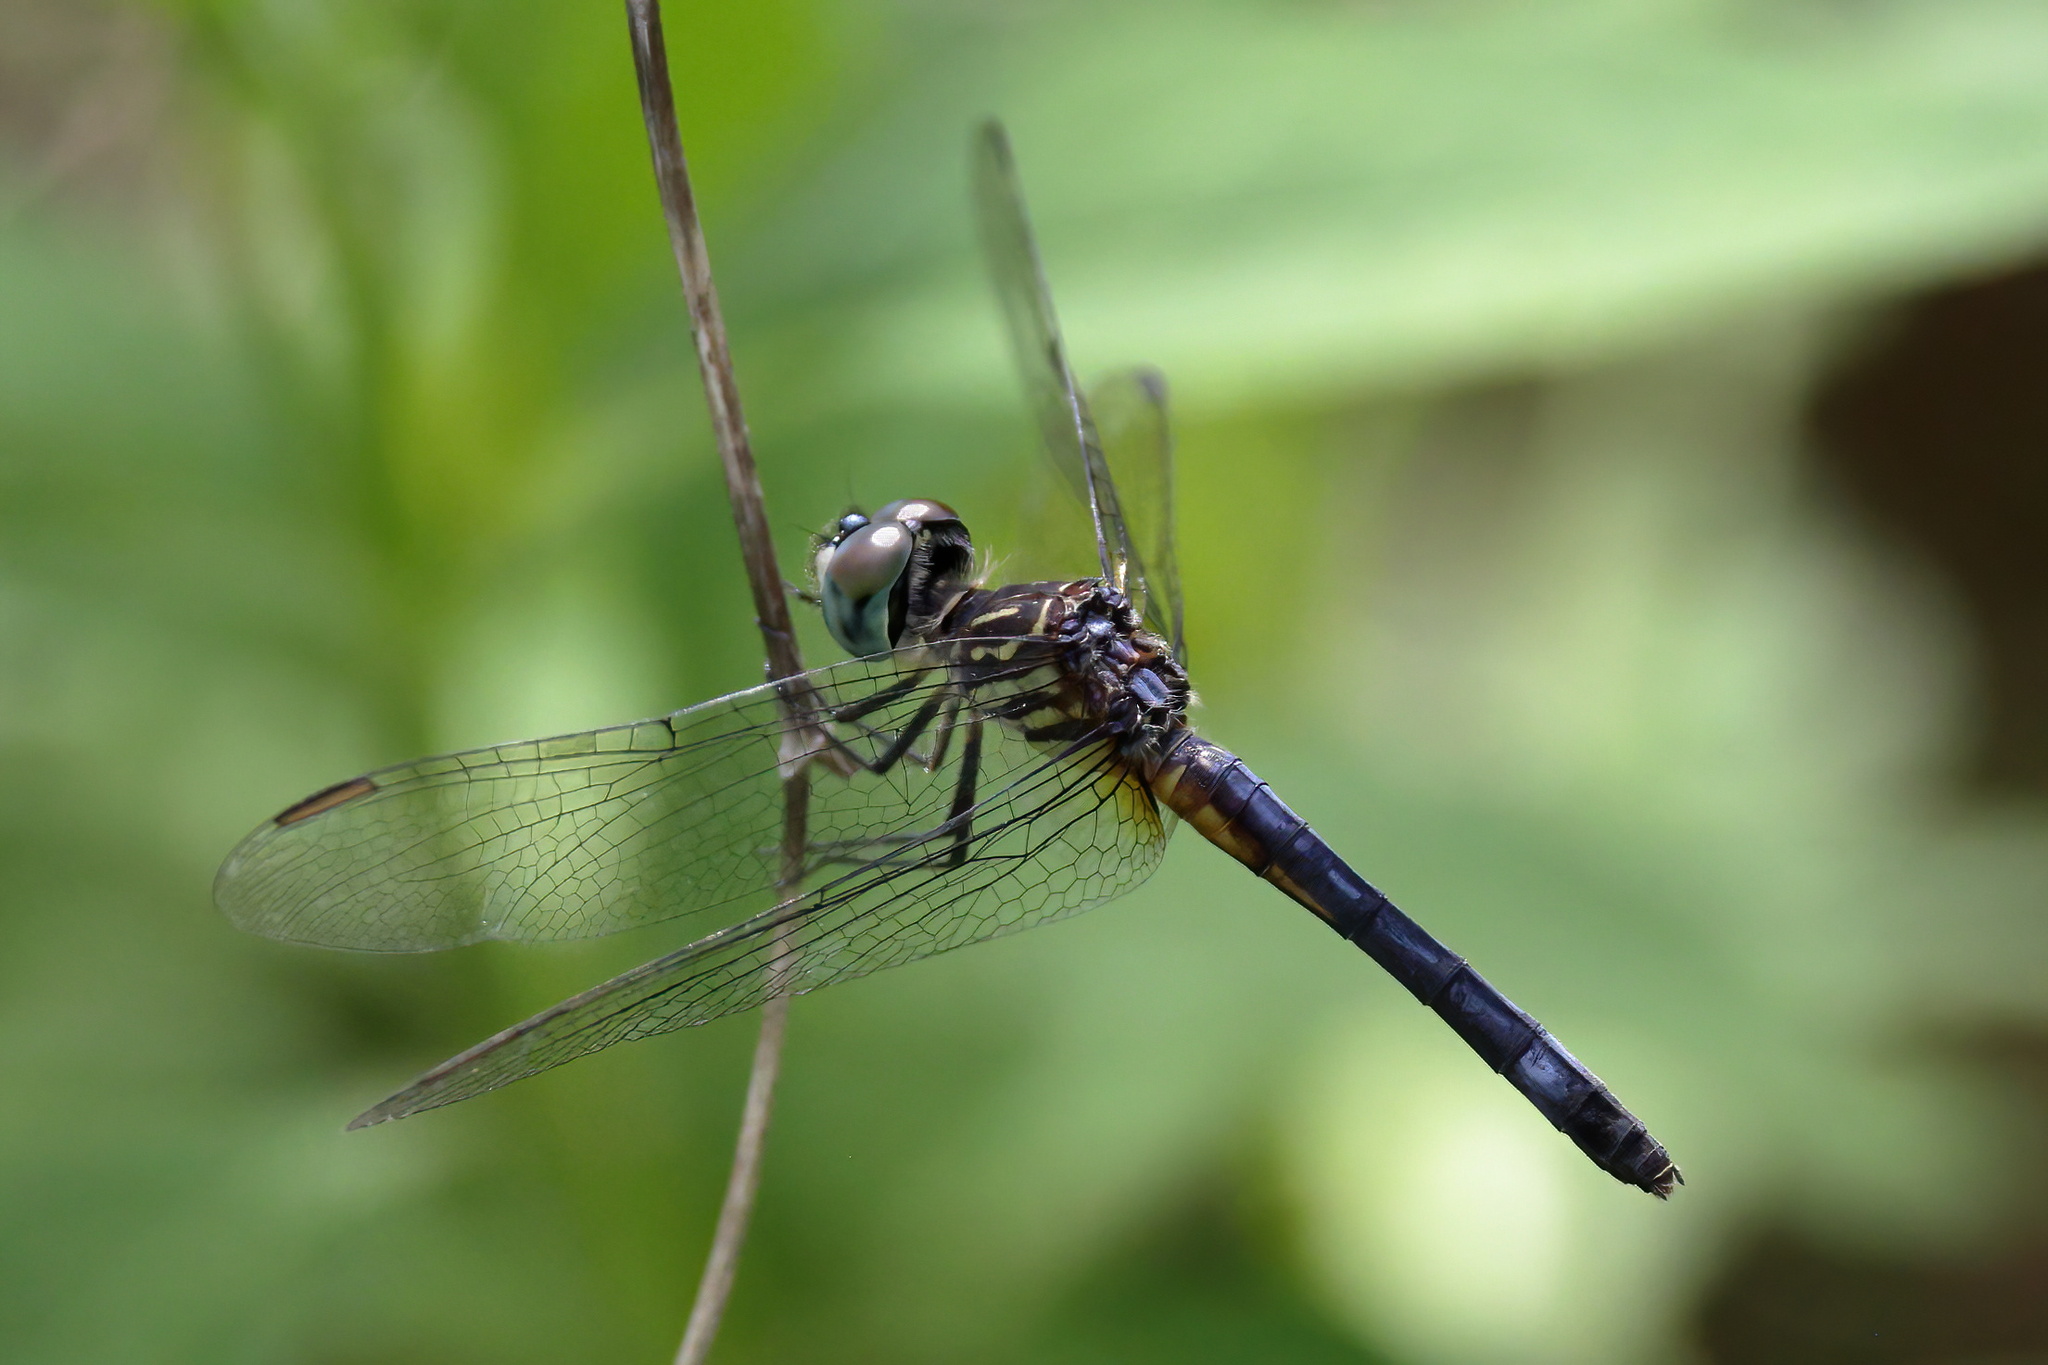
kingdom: Animalia
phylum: Arthropoda
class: Insecta
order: Odonata
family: Libellulidae
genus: Pachydiplax
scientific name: Pachydiplax longipennis
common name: Blue dasher
